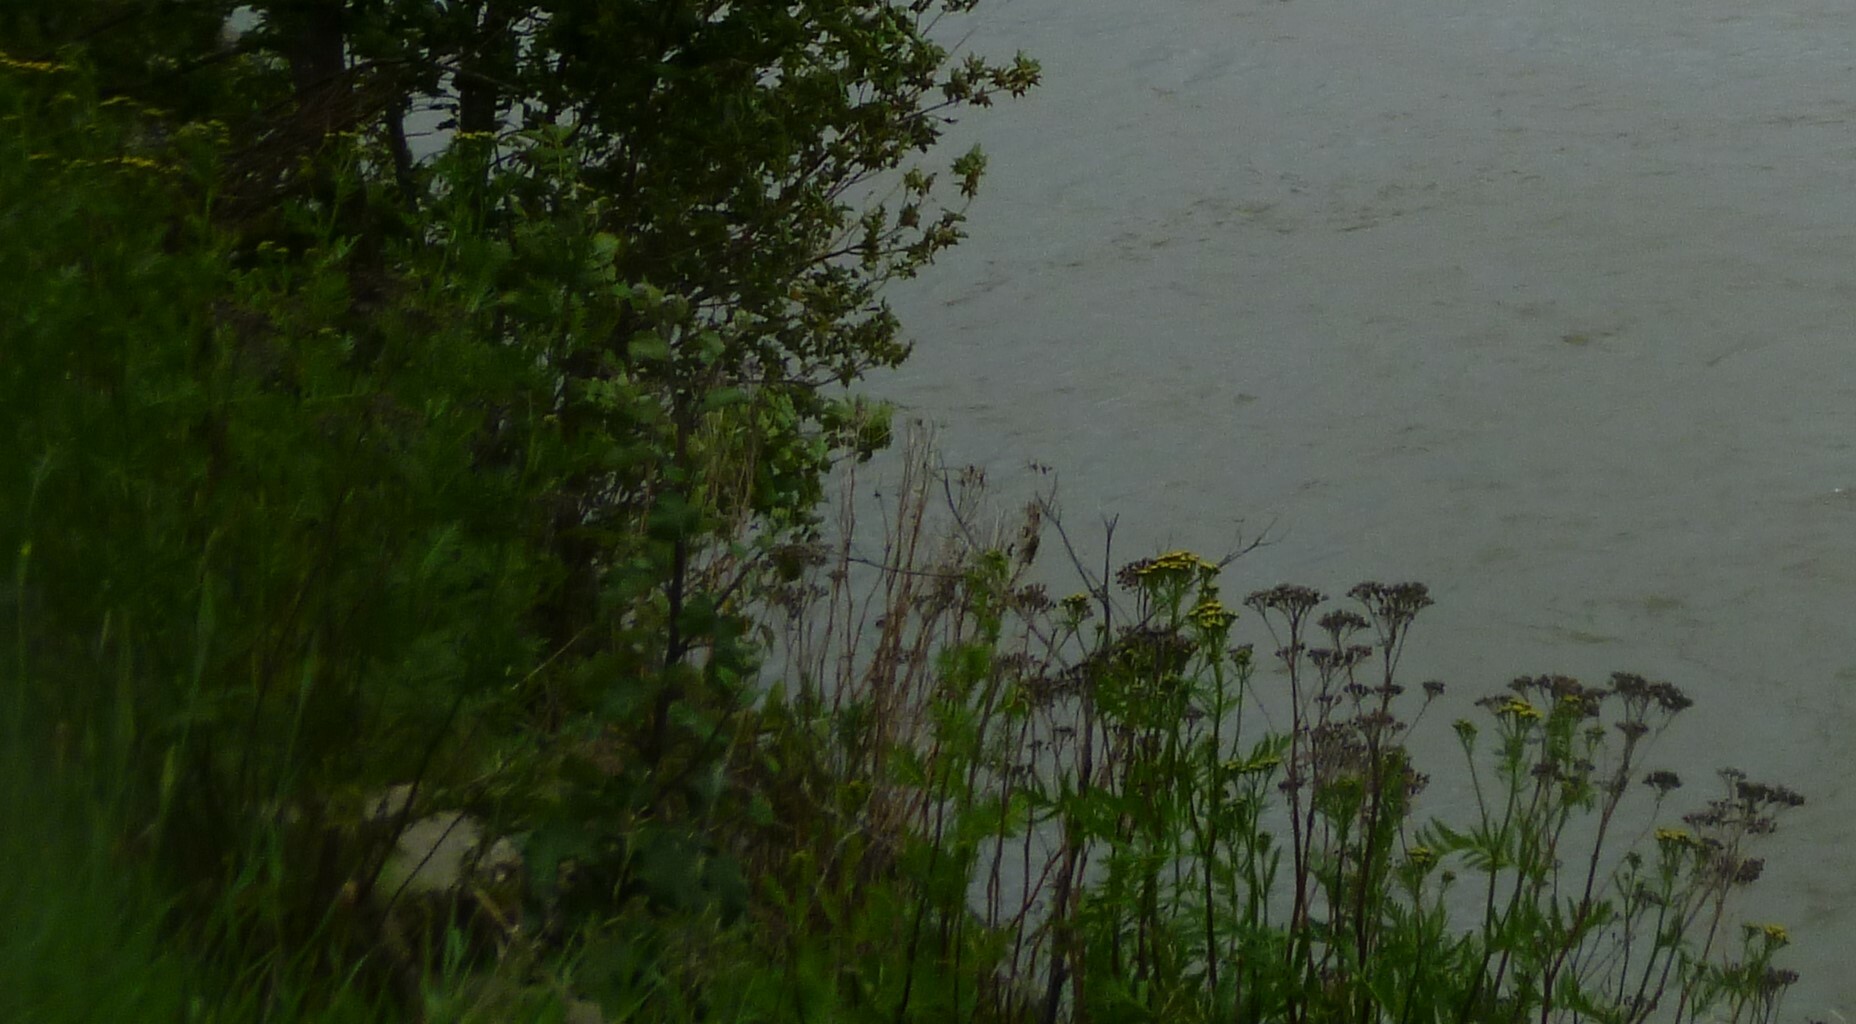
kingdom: Plantae
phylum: Tracheophyta
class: Magnoliopsida
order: Asterales
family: Asteraceae
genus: Tanacetum
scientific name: Tanacetum vulgare
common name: Common tansy
